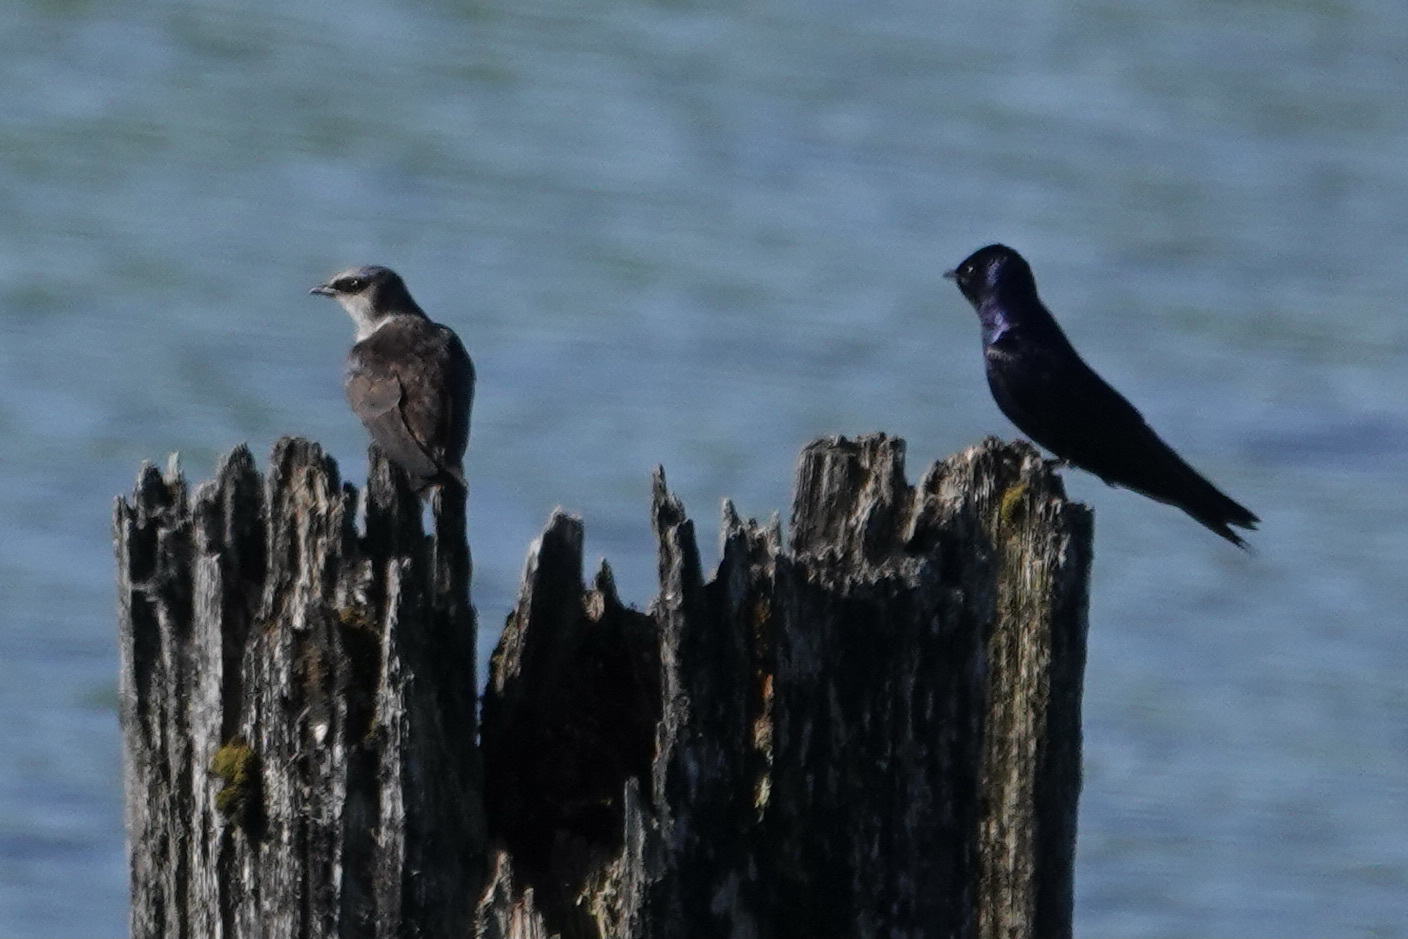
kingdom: Animalia
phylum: Chordata
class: Aves
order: Passeriformes
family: Hirundinidae
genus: Progne
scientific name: Progne subis
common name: Purple martin
